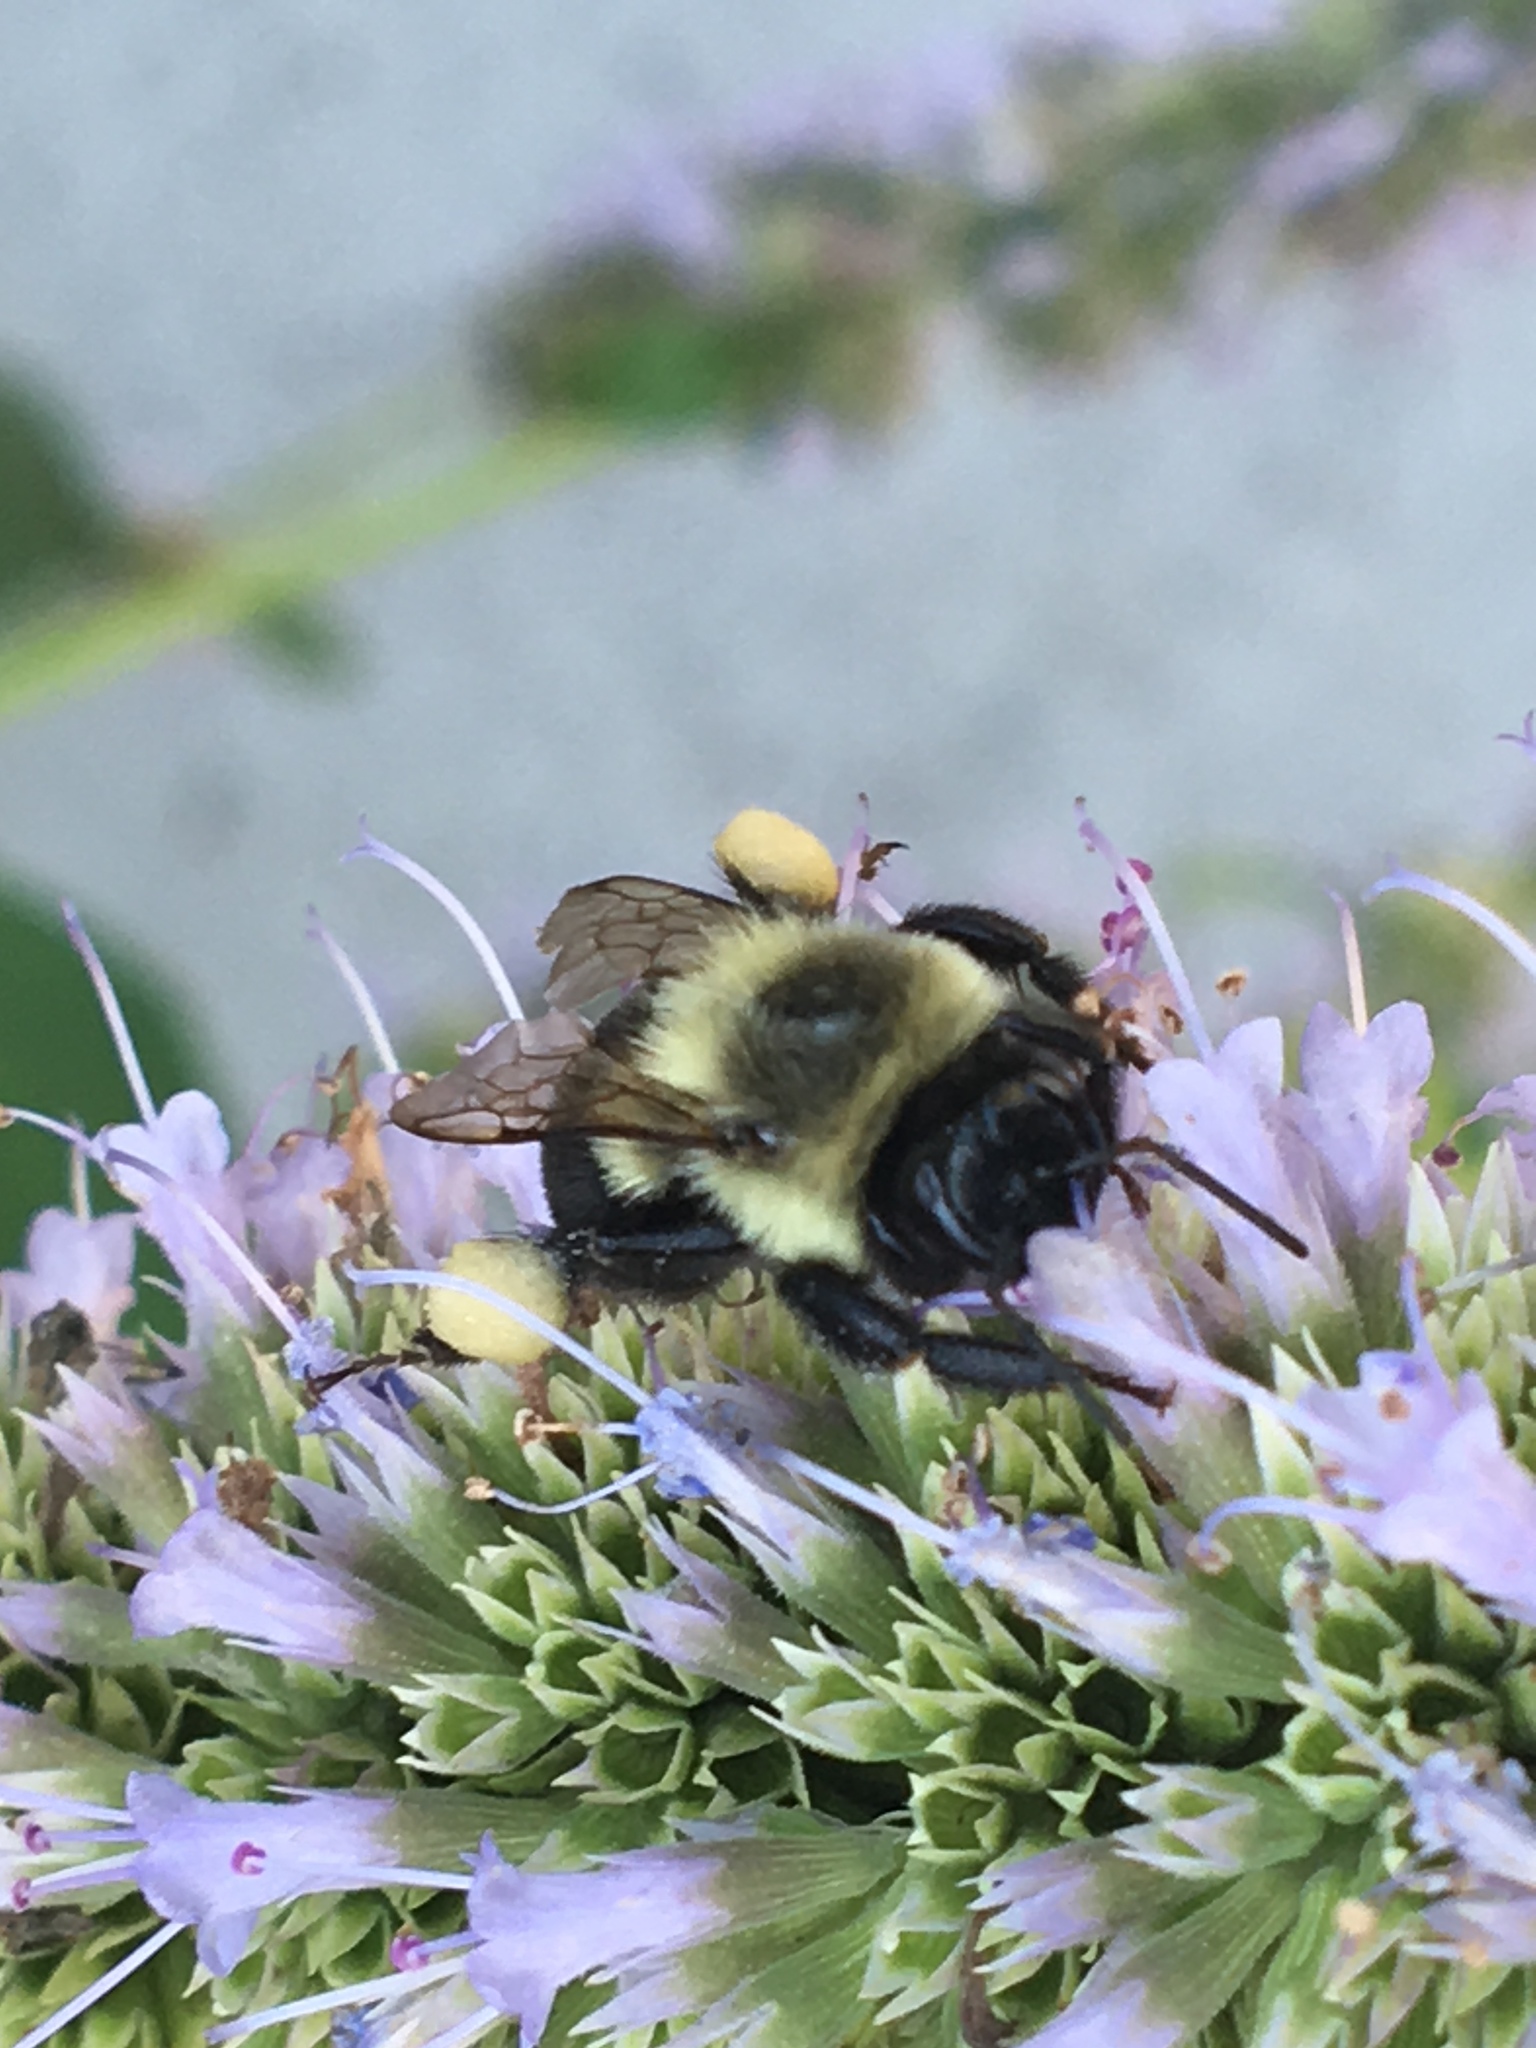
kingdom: Animalia
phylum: Arthropoda
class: Insecta
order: Hymenoptera
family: Apidae
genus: Bombus
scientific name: Bombus impatiens
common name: Common eastern bumble bee
